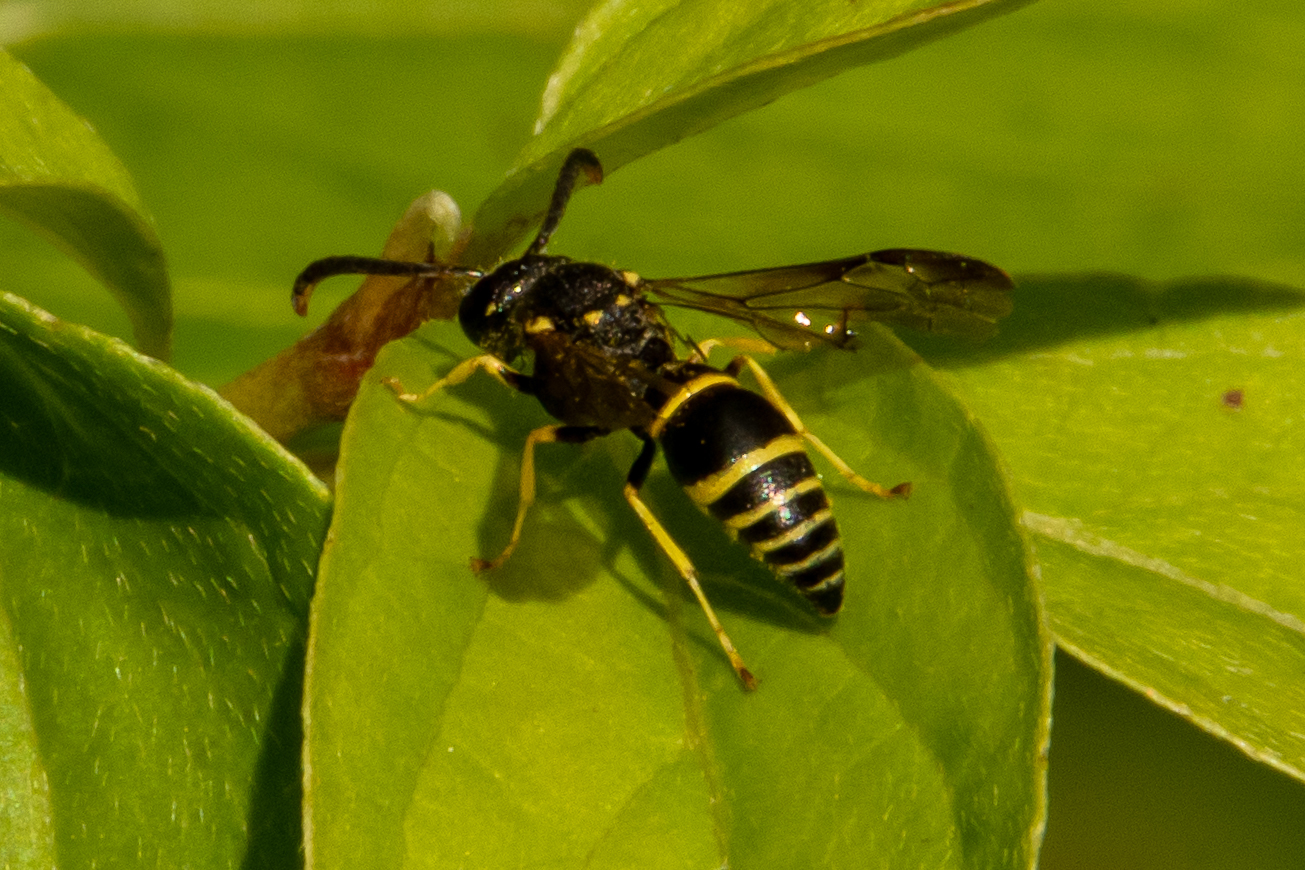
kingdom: Animalia
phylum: Arthropoda
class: Insecta
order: Hymenoptera
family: Vespidae
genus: Ancistrocerus
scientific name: Ancistrocerus
